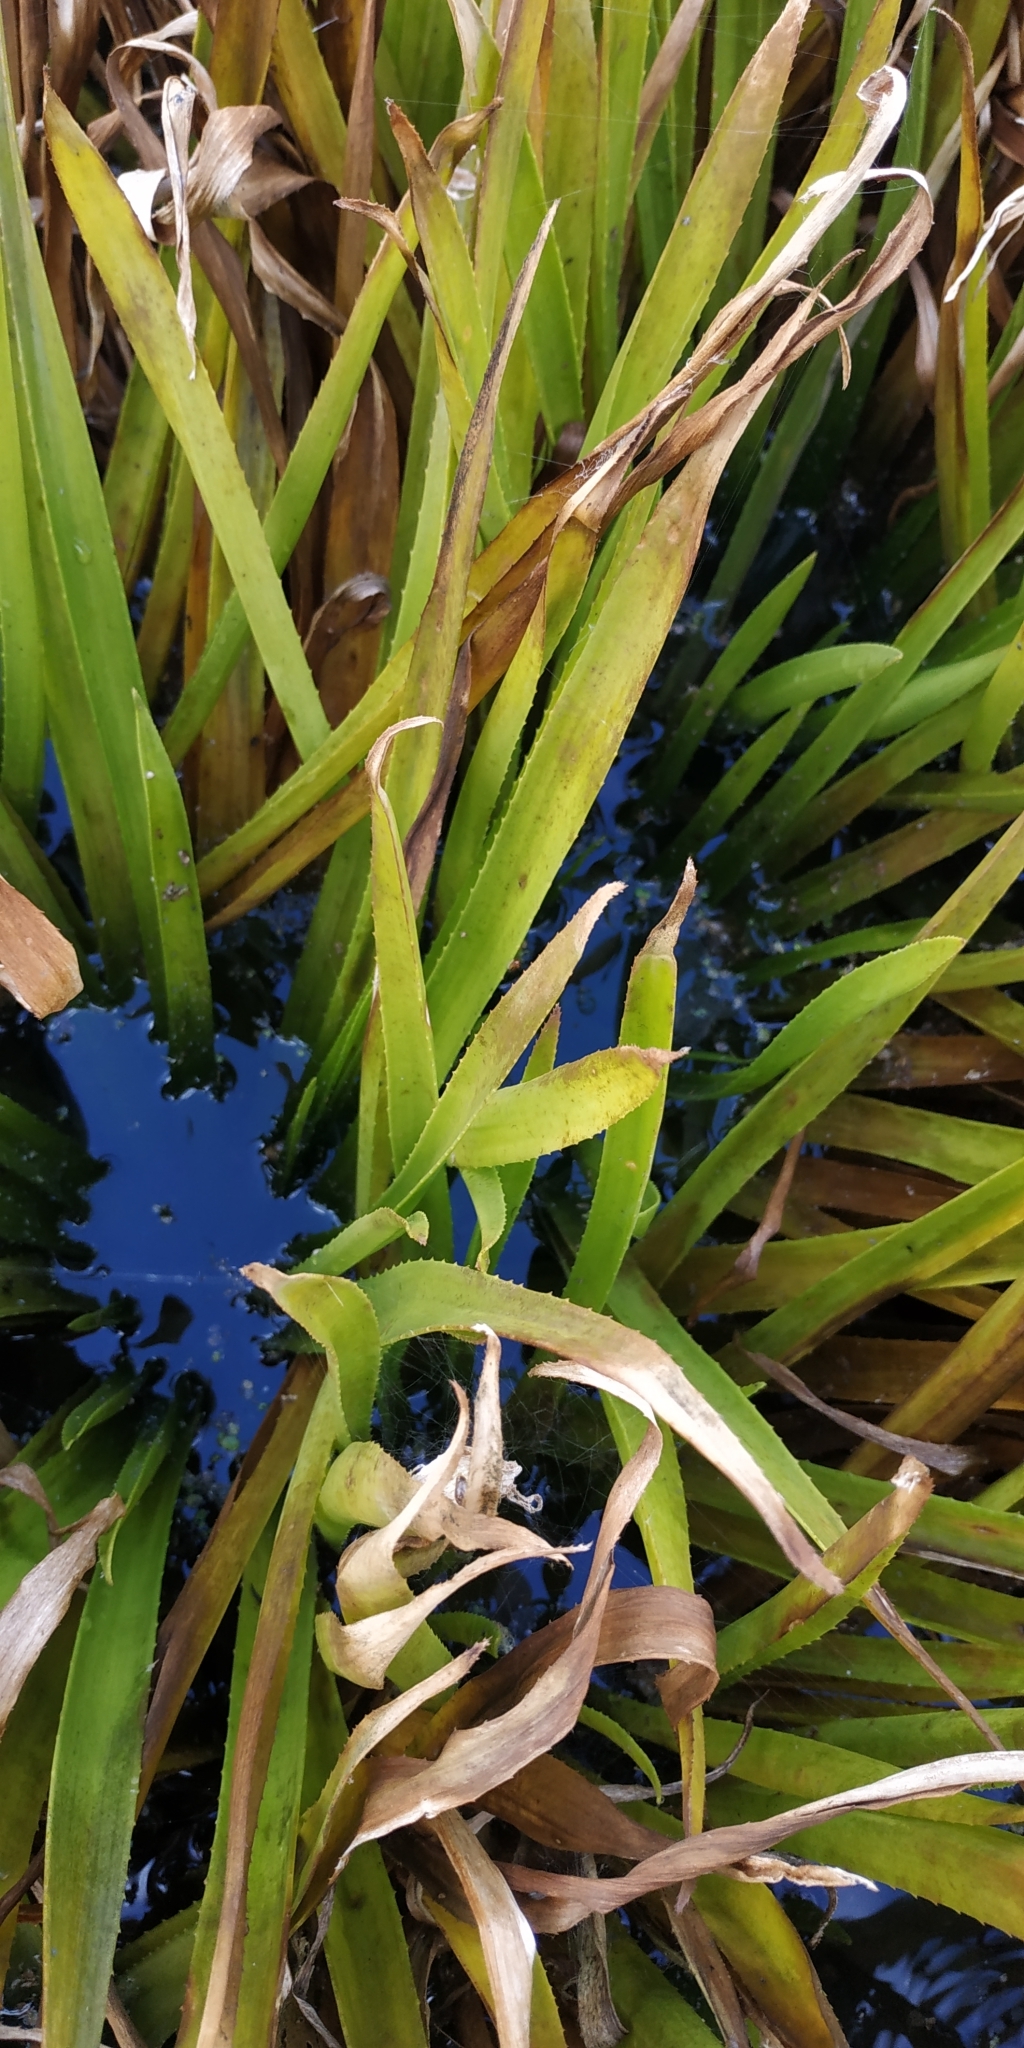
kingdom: Plantae
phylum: Tracheophyta
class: Liliopsida
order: Alismatales
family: Hydrocharitaceae
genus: Stratiotes
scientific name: Stratiotes aloides
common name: Water-soldier
